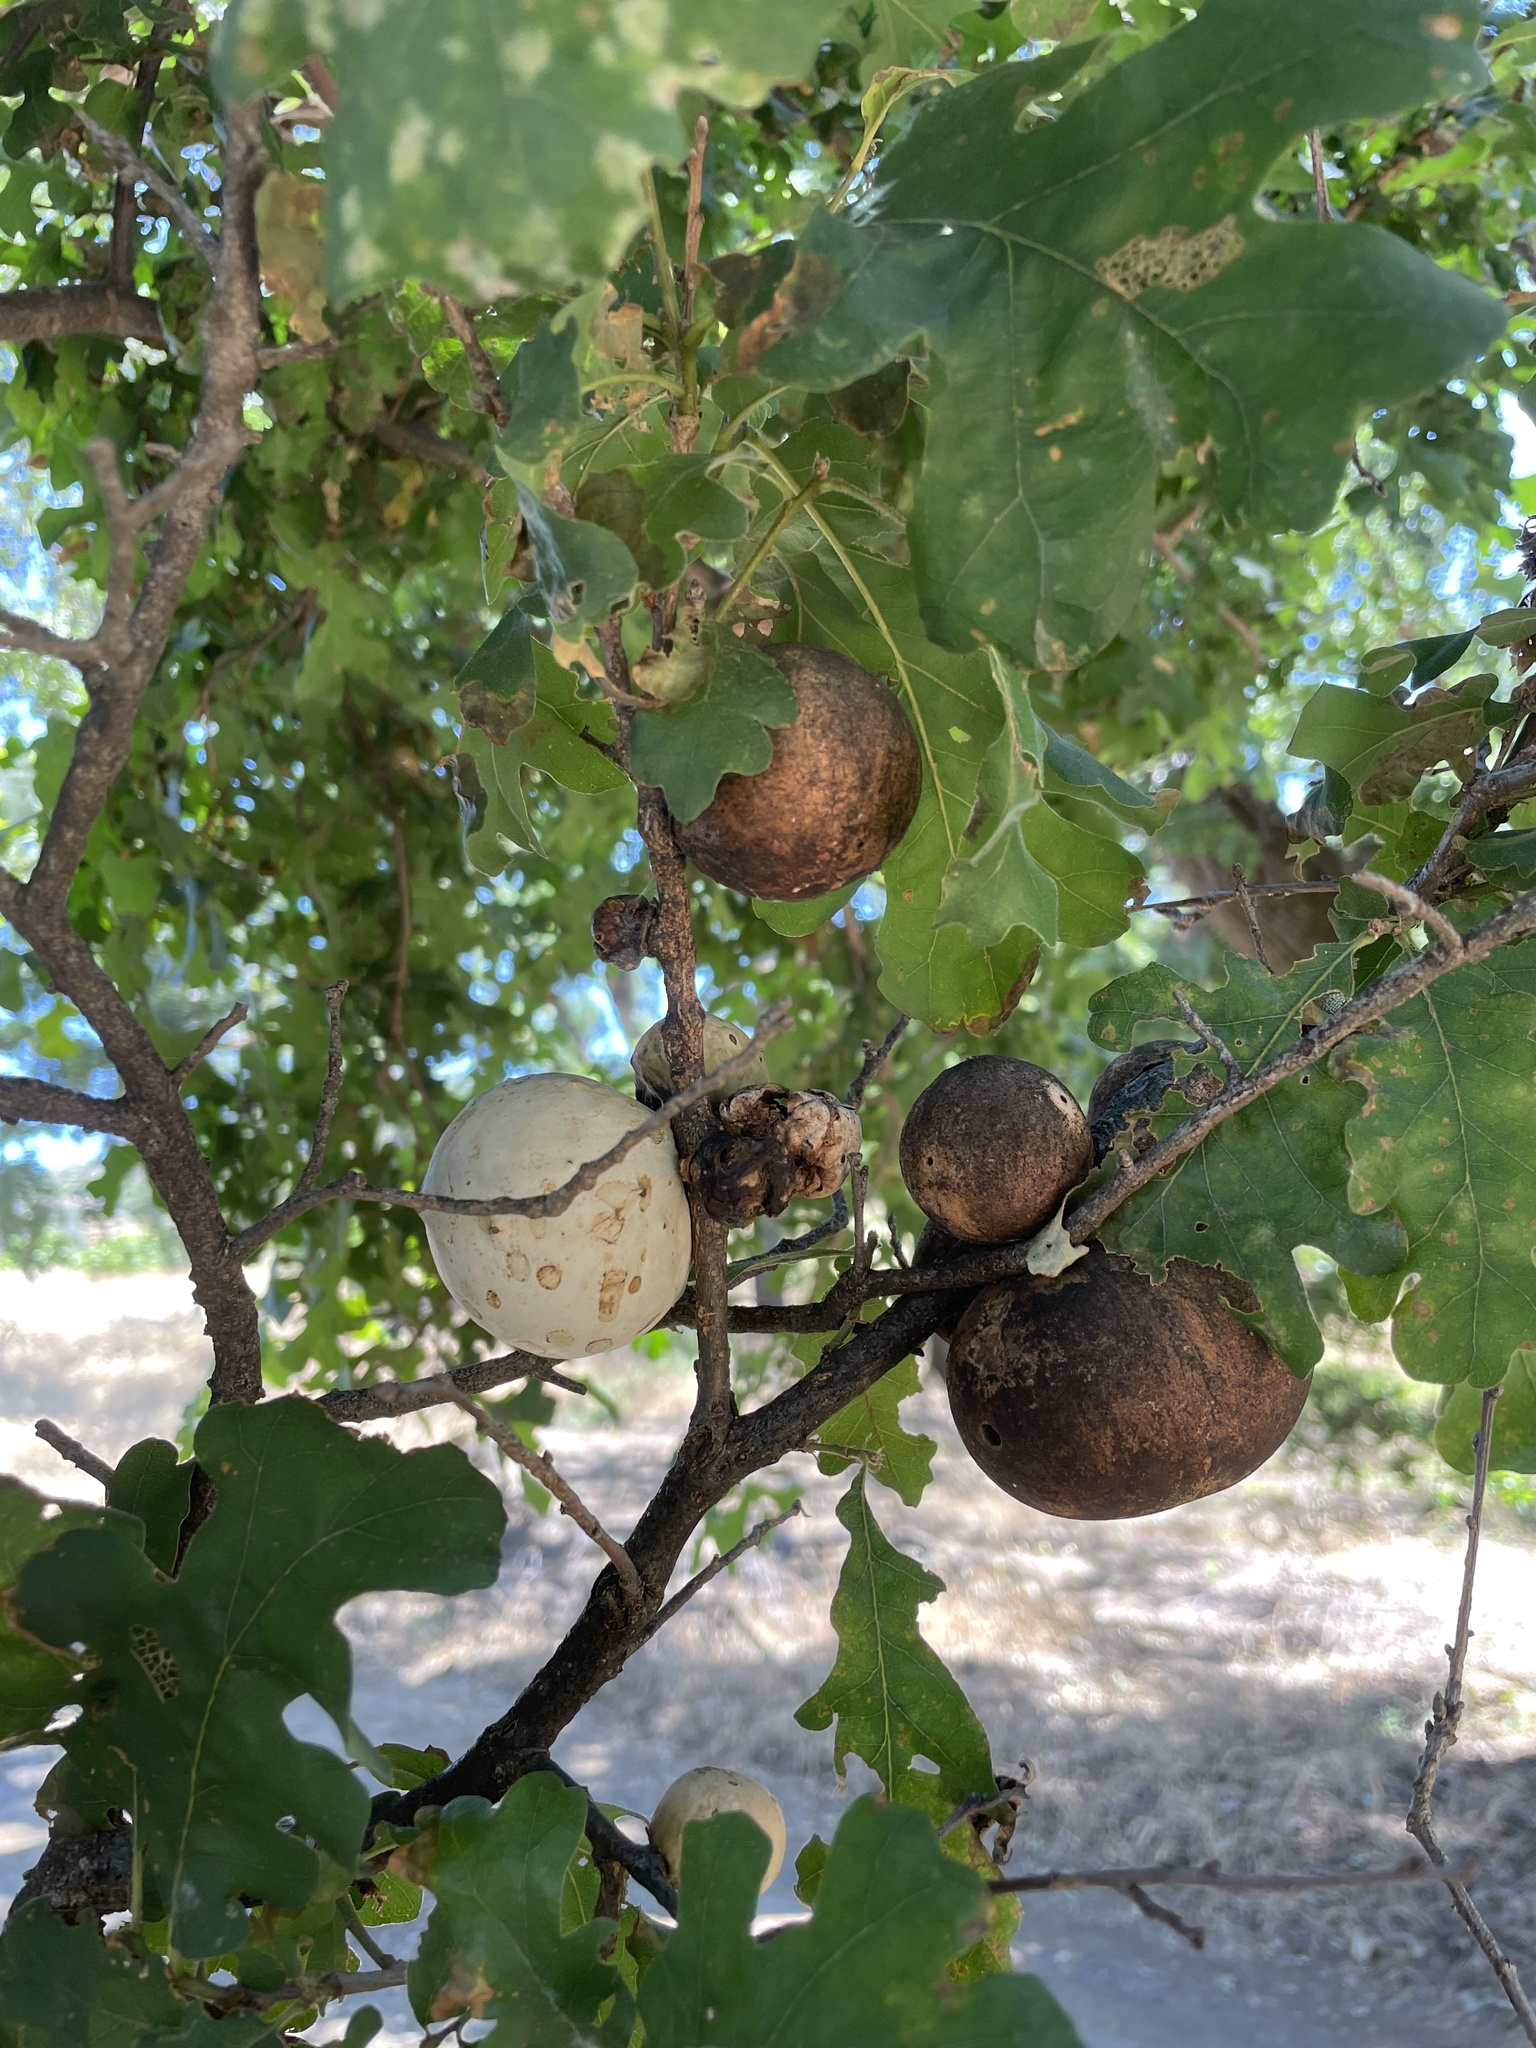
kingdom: Animalia
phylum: Arthropoda
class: Insecta
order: Hymenoptera
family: Cynipidae
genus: Andricus
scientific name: Andricus quercuscalifornicus
